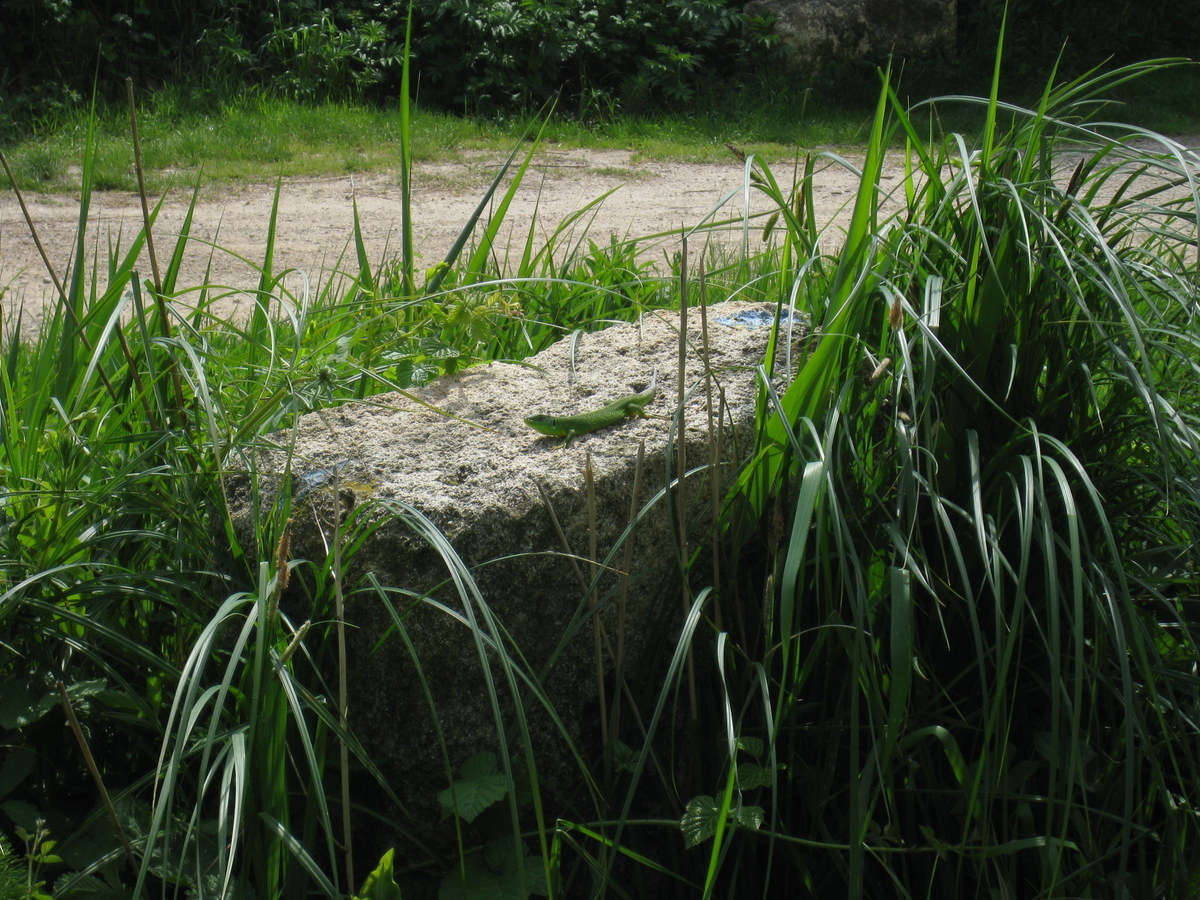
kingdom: Animalia
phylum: Chordata
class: Squamata
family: Lacertidae
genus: Lacerta
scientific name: Lacerta bilineata
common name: Western green lizard
